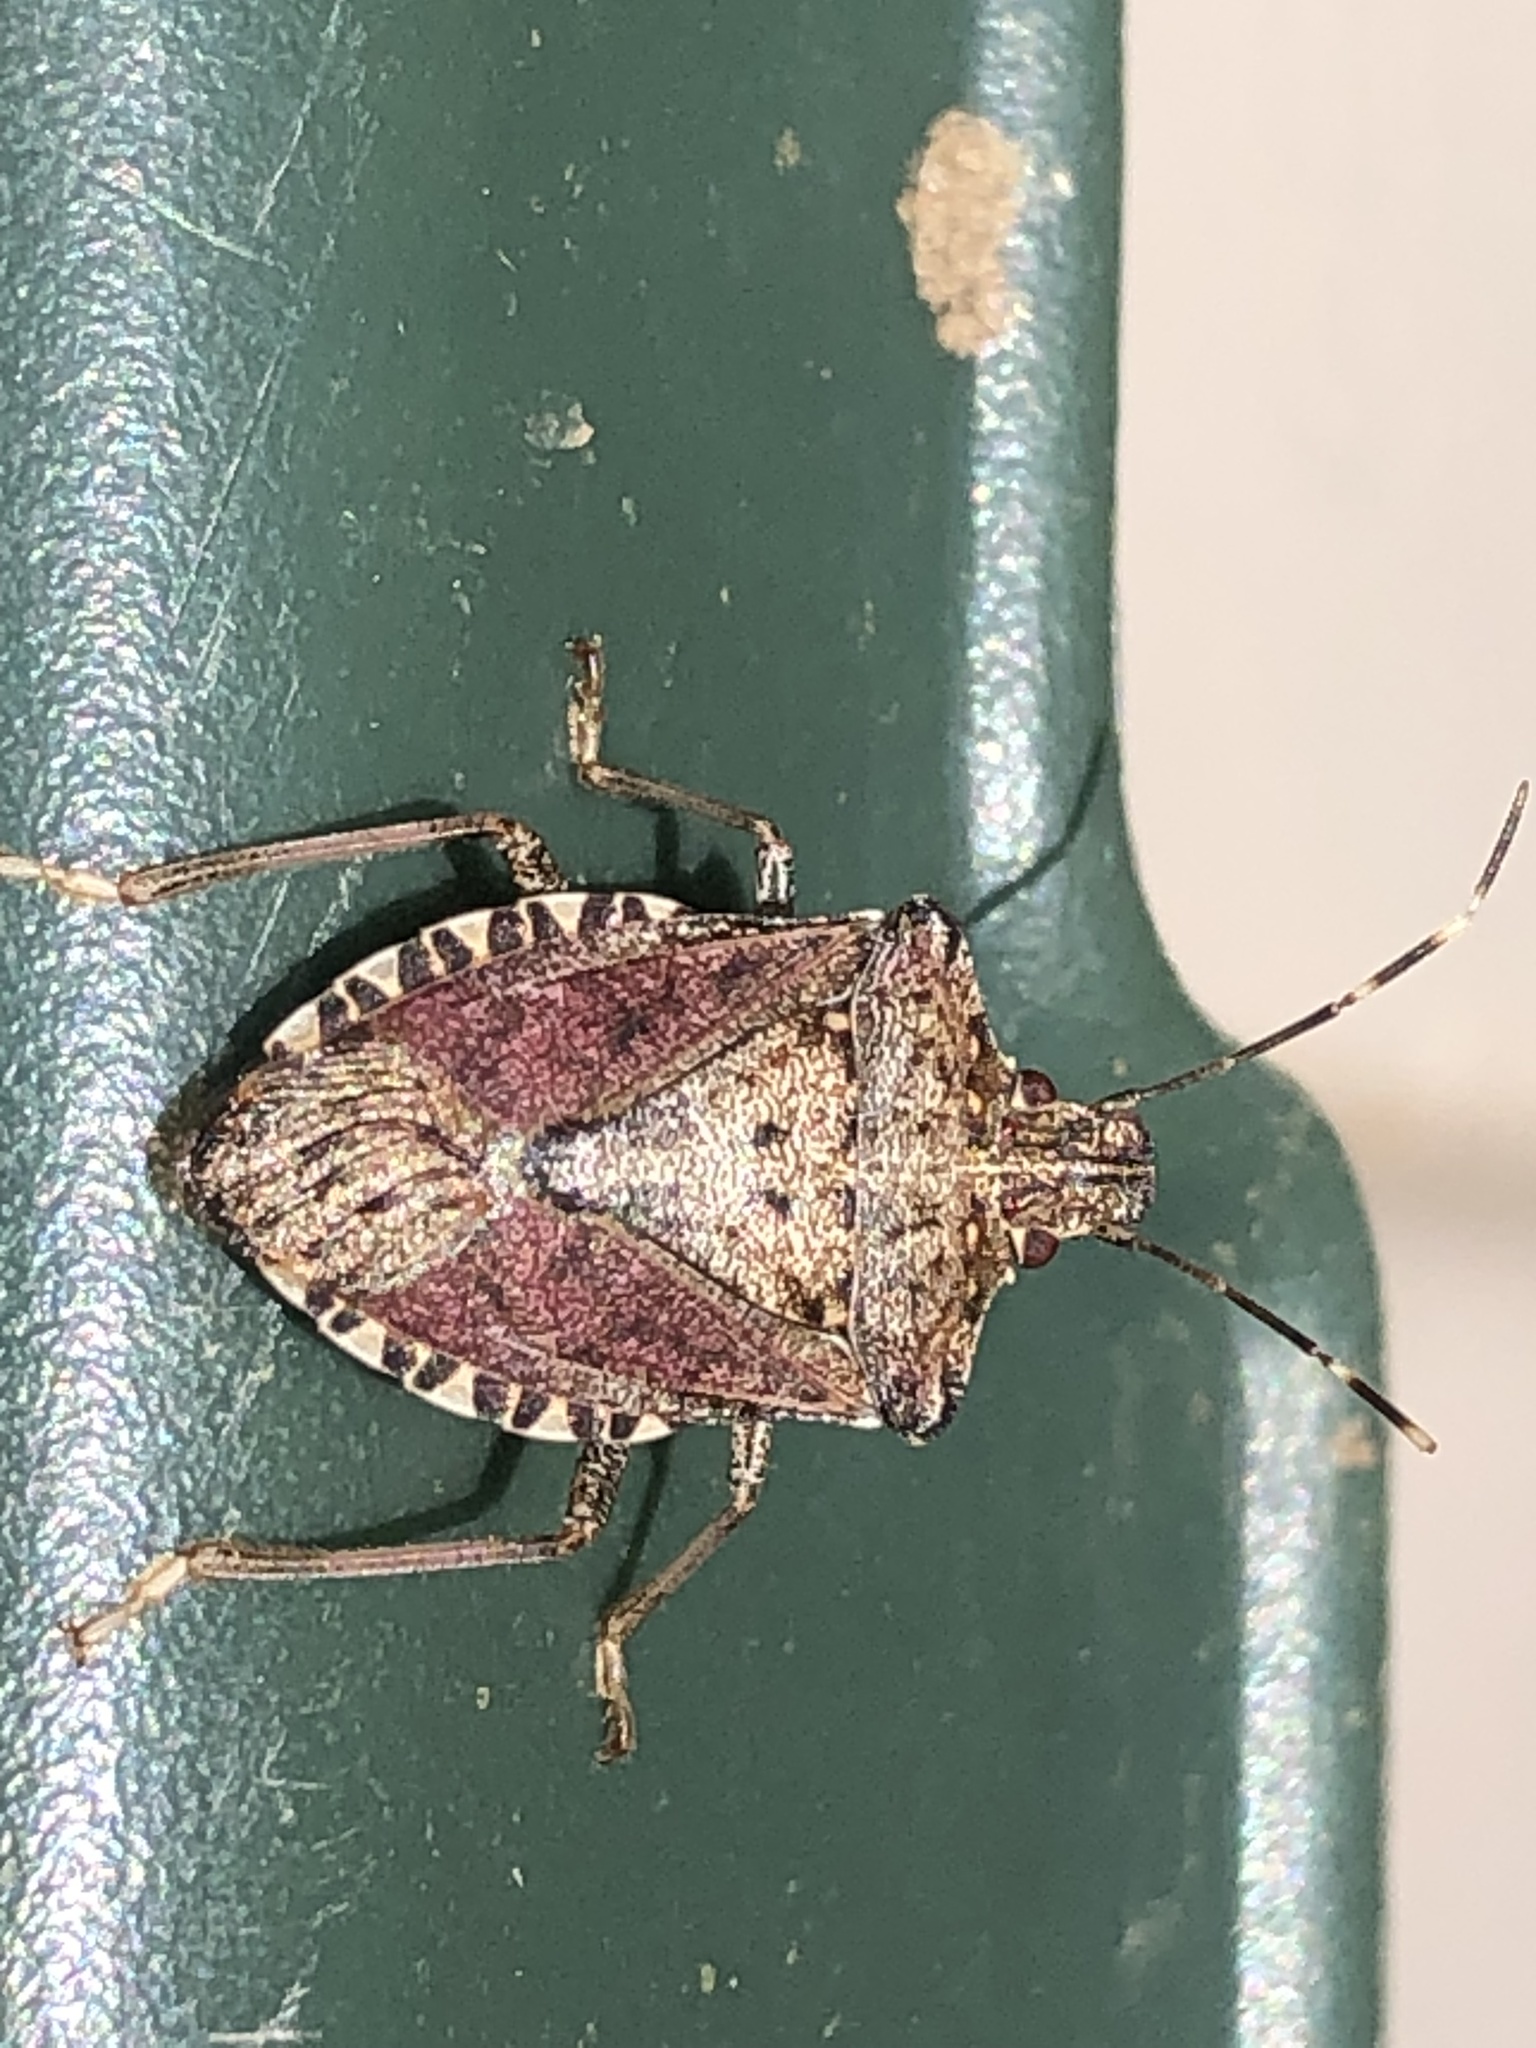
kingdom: Animalia
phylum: Arthropoda
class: Insecta
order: Hemiptera
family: Pentatomidae
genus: Halyomorpha
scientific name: Halyomorpha halys
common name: Brown marmorated stink bug
